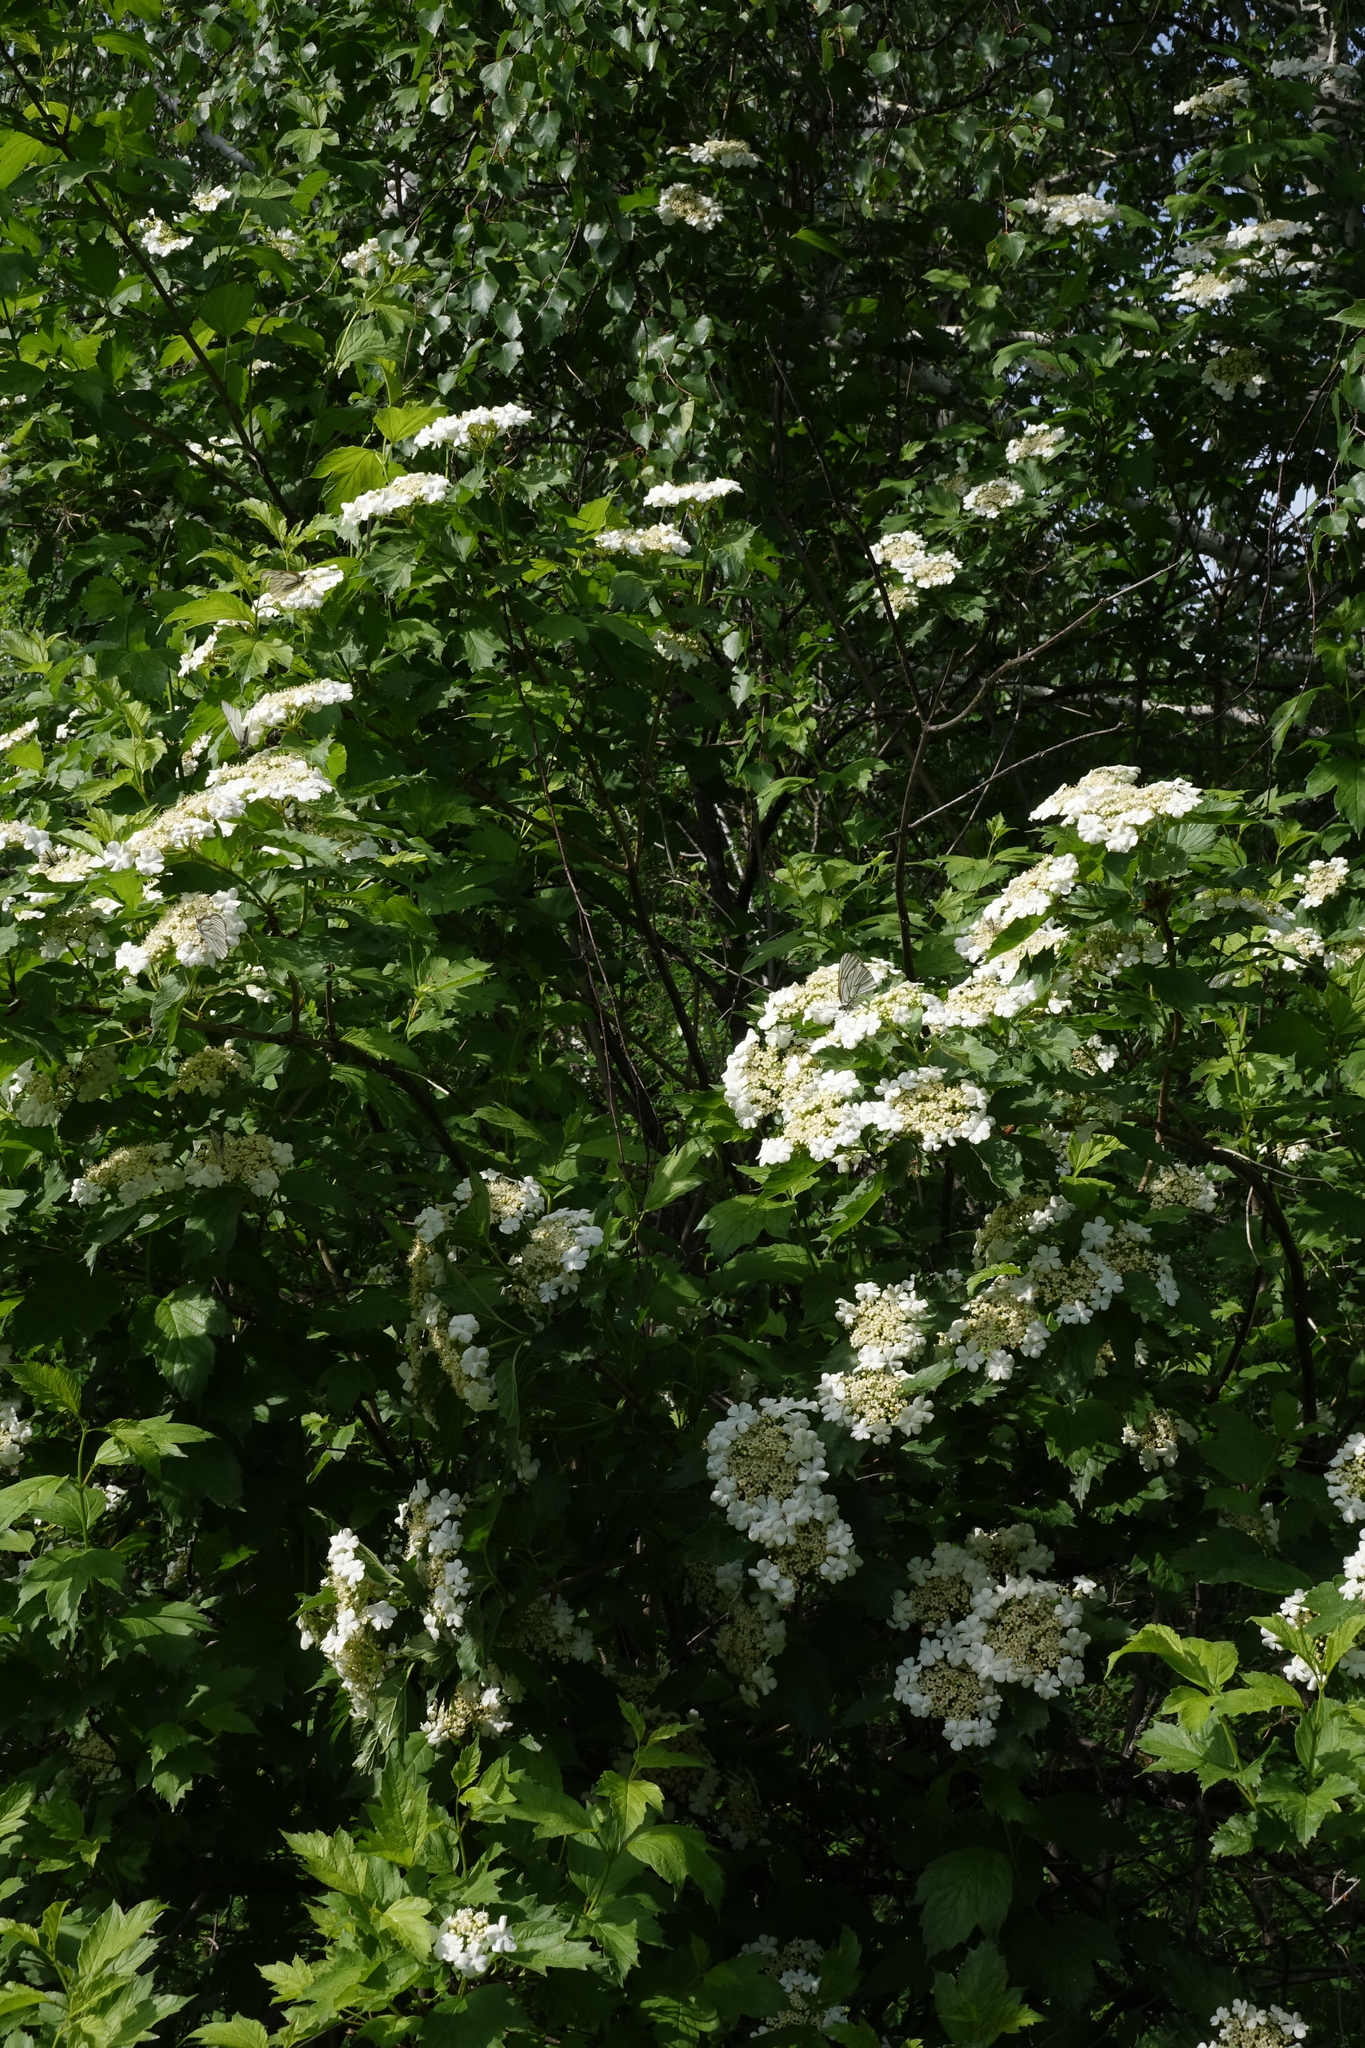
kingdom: Plantae
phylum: Tracheophyta
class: Magnoliopsida
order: Dipsacales
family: Viburnaceae
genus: Viburnum
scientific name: Viburnum opulus
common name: Guelder-rose
